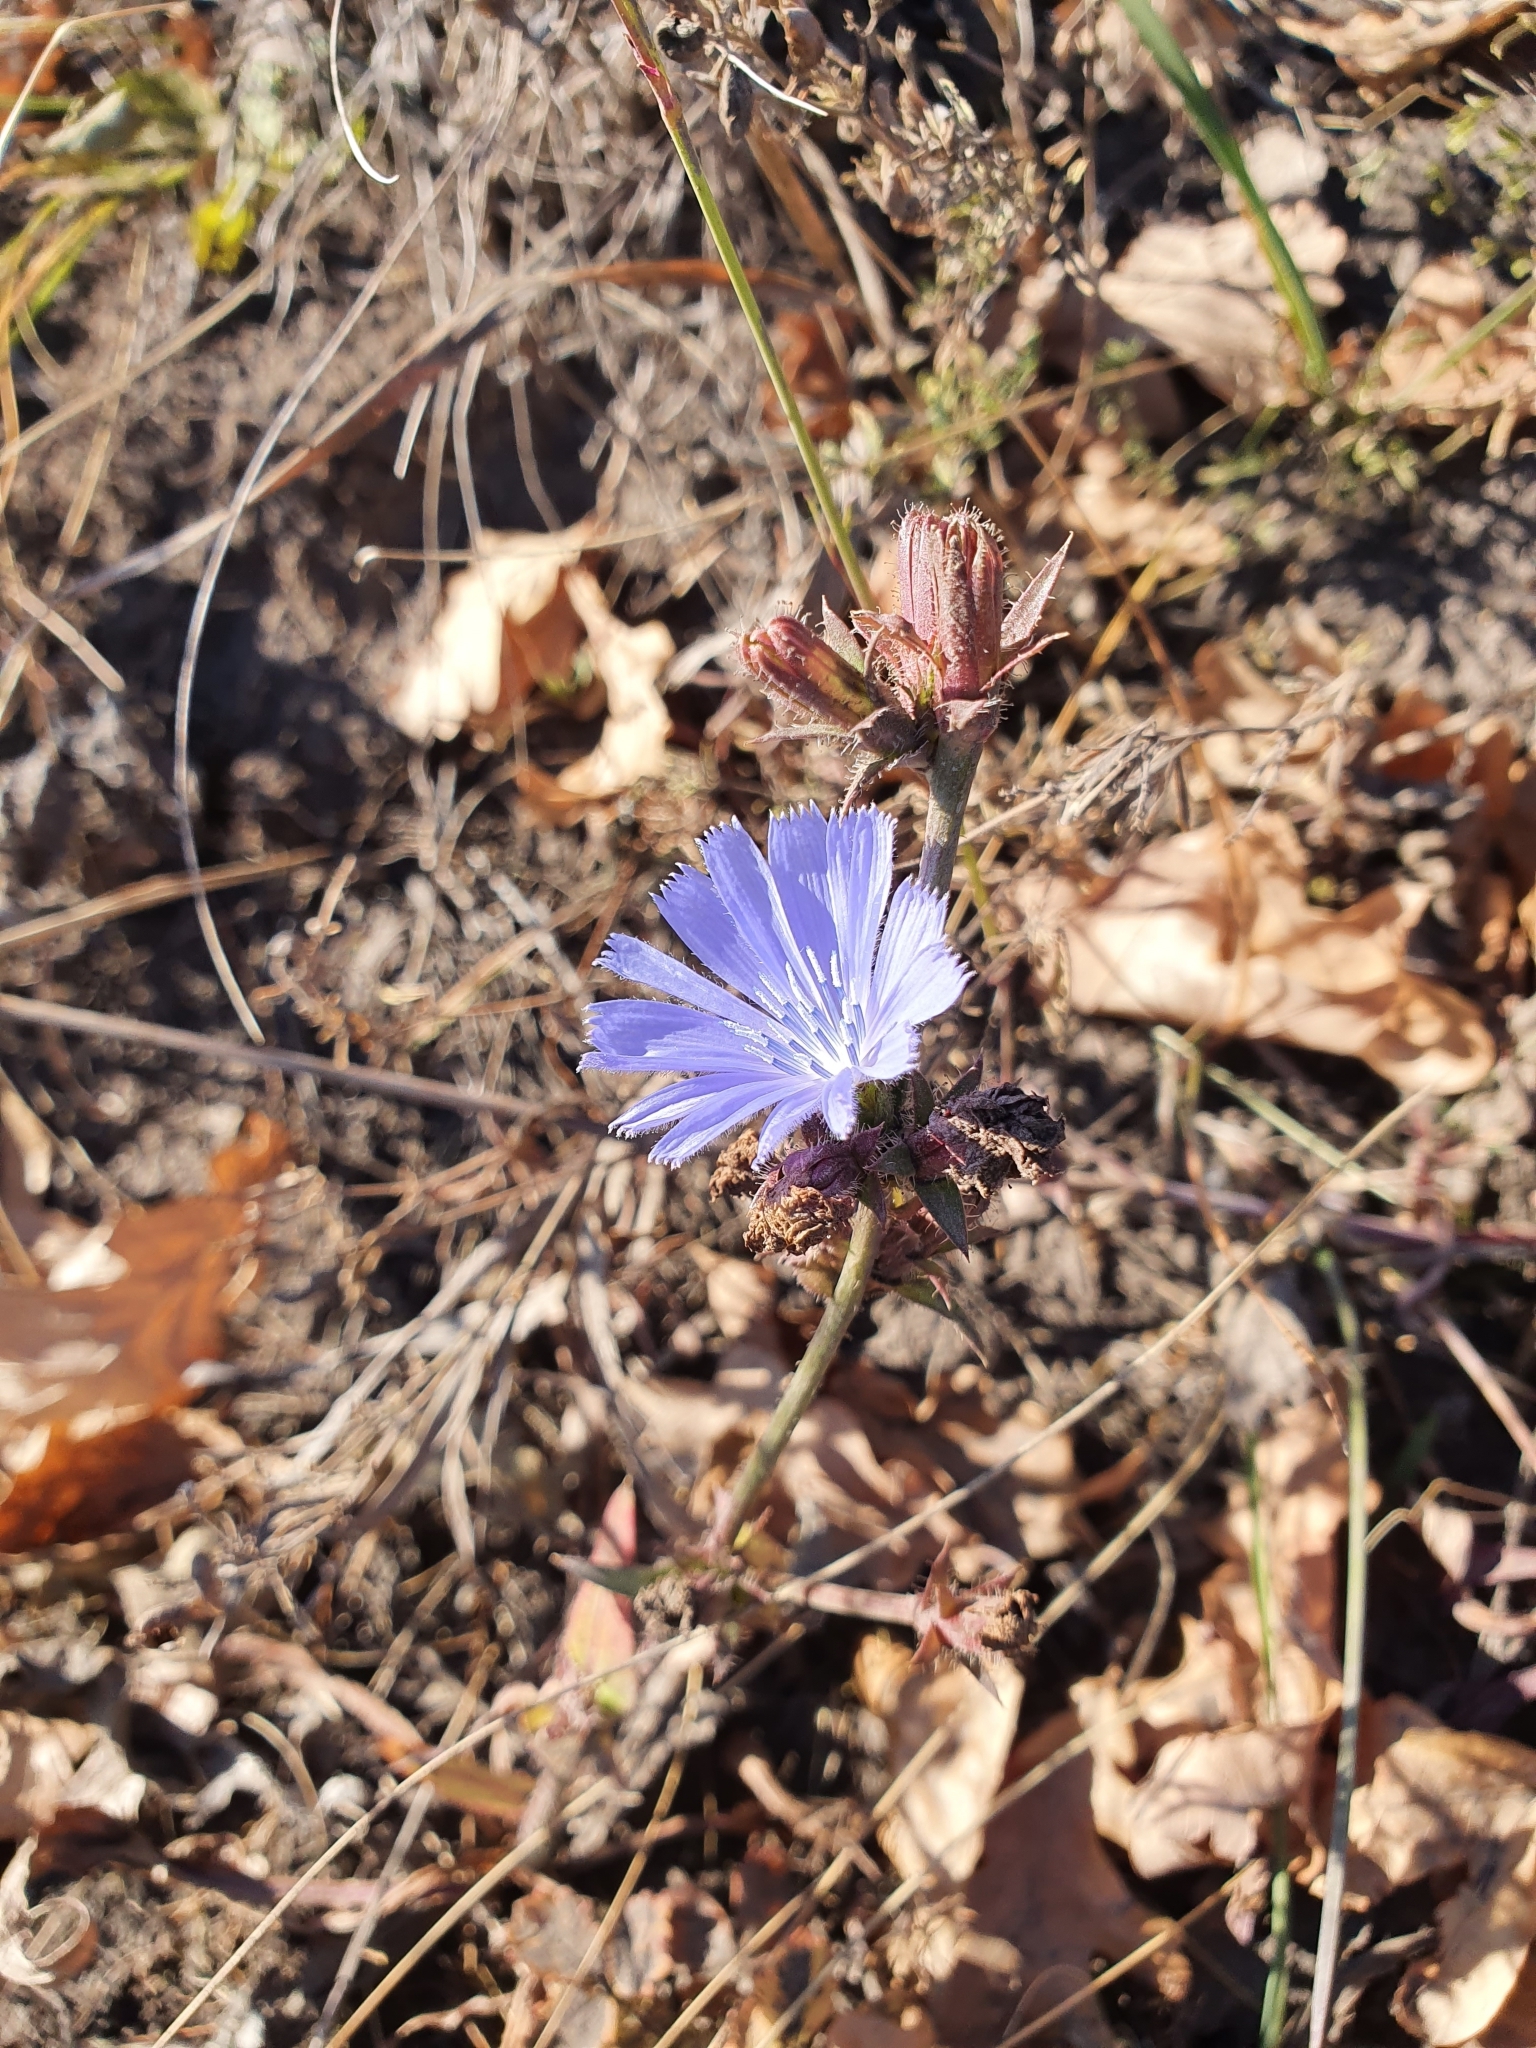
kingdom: Plantae
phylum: Tracheophyta
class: Magnoliopsida
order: Asterales
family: Asteraceae
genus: Cichorium
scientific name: Cichorium intybus
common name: Chicory
